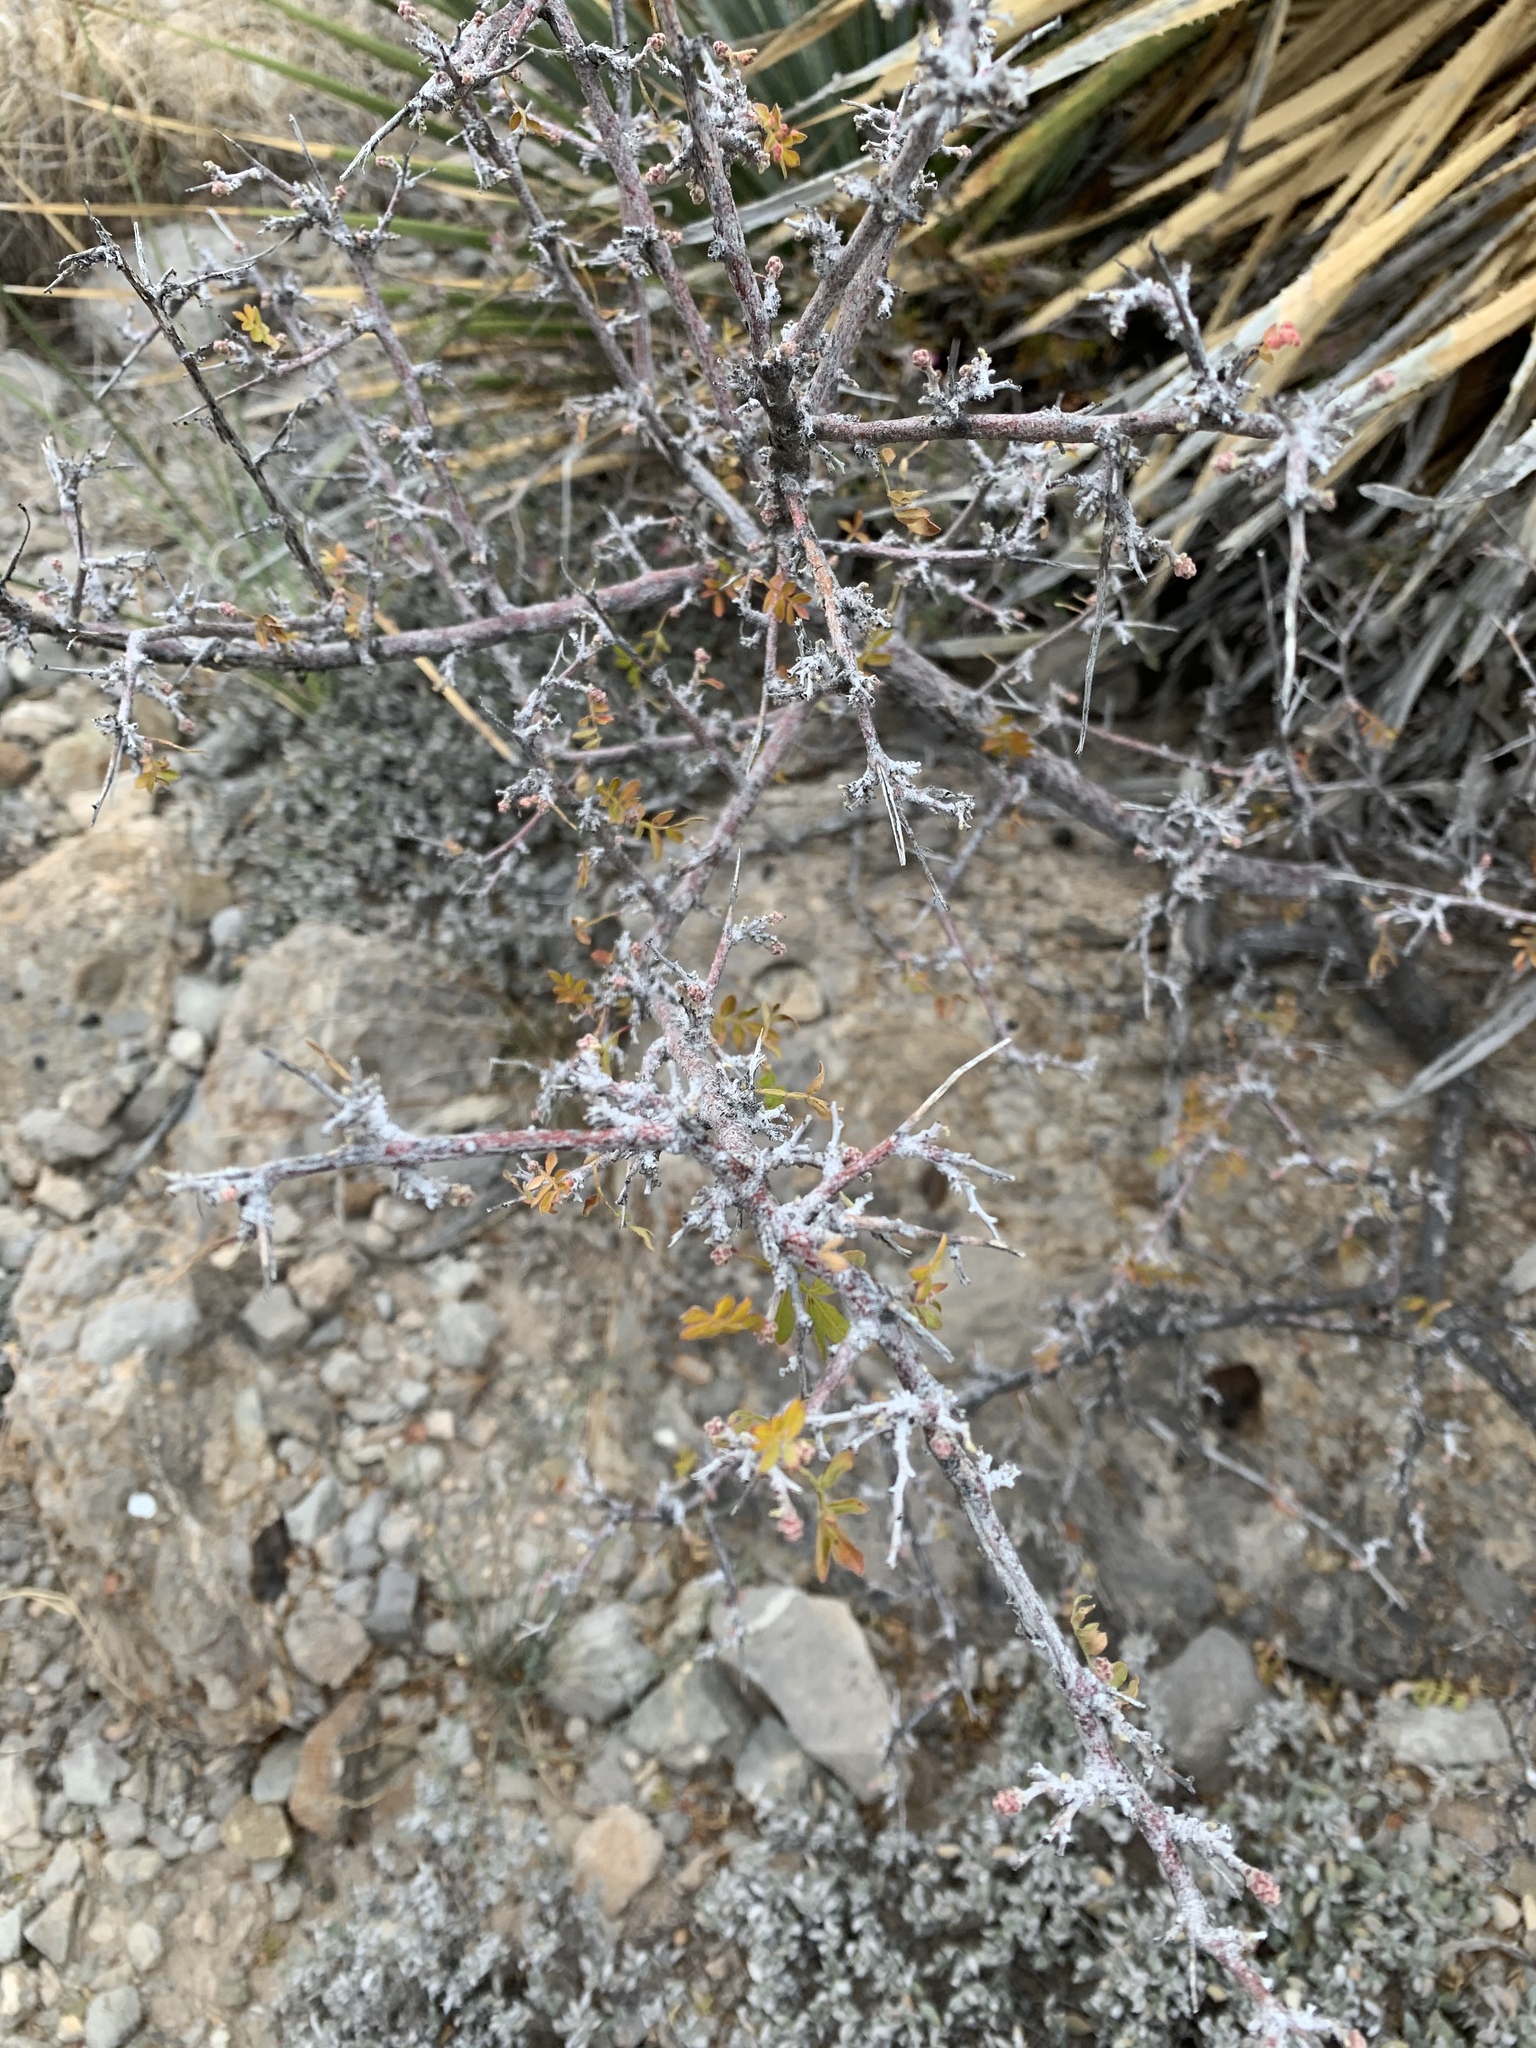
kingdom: Plantae
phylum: Tracheophyta
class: Magnoliopsida
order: Sapindales
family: Anacardiaceae
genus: Rhus
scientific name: Rhus microphylla
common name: Desert sumac
